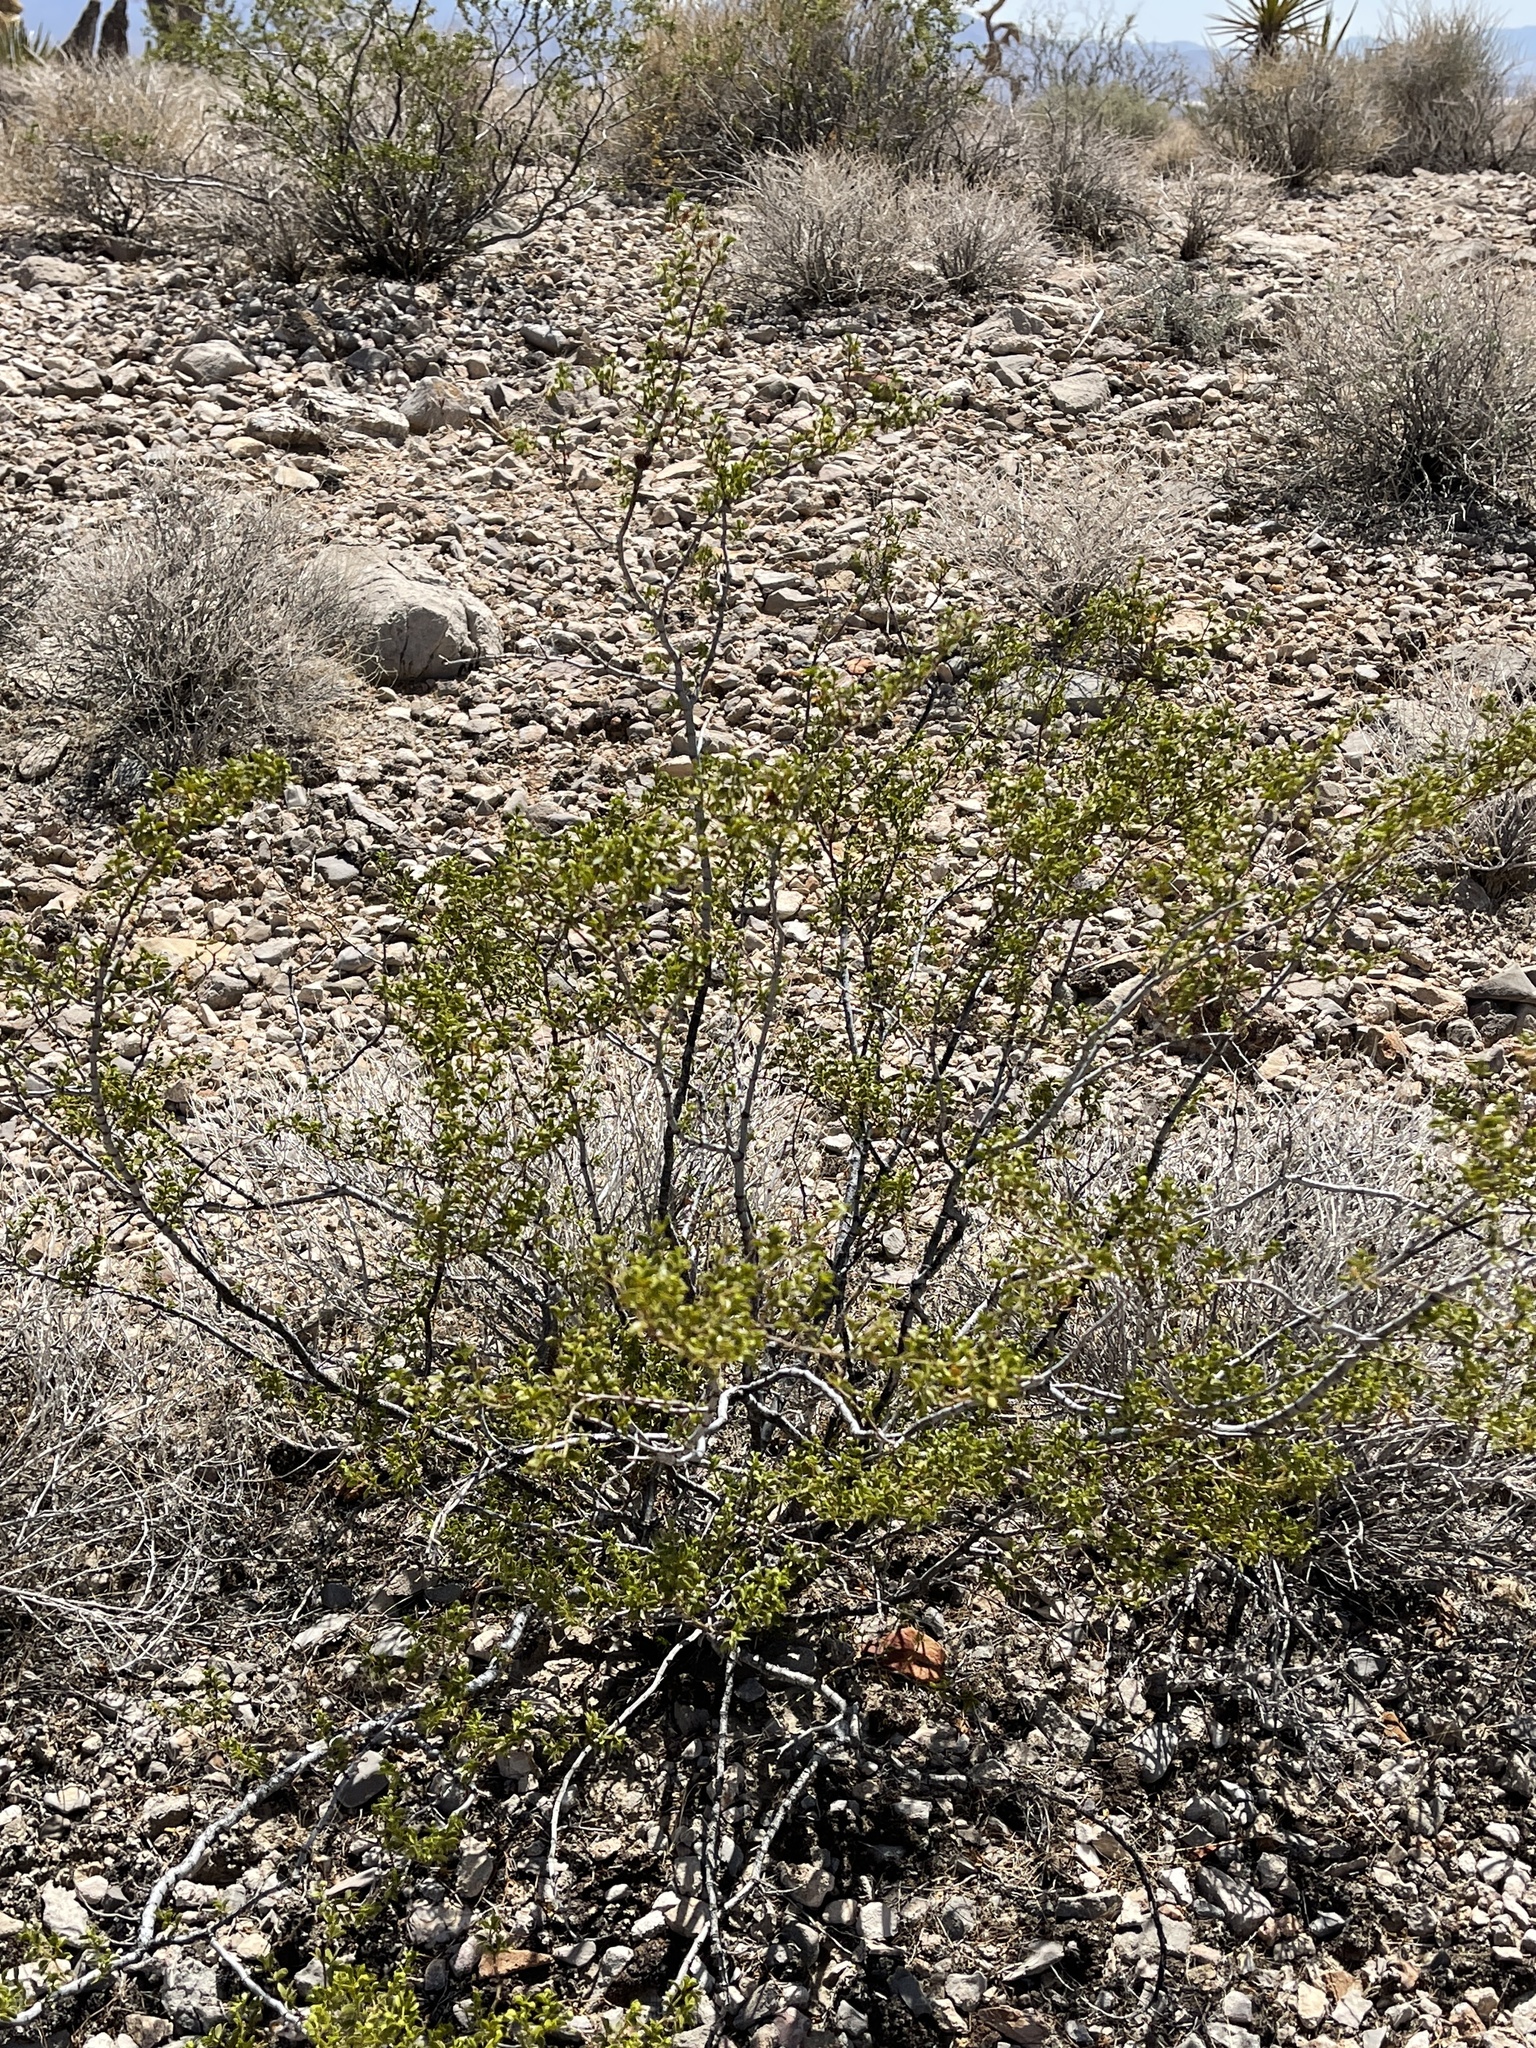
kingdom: Plantae
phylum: Tracheophyta
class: Magnoliopsida
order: Zygophyllales
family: Zygophyllaceae
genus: Larrea
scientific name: Larrea tridentata
